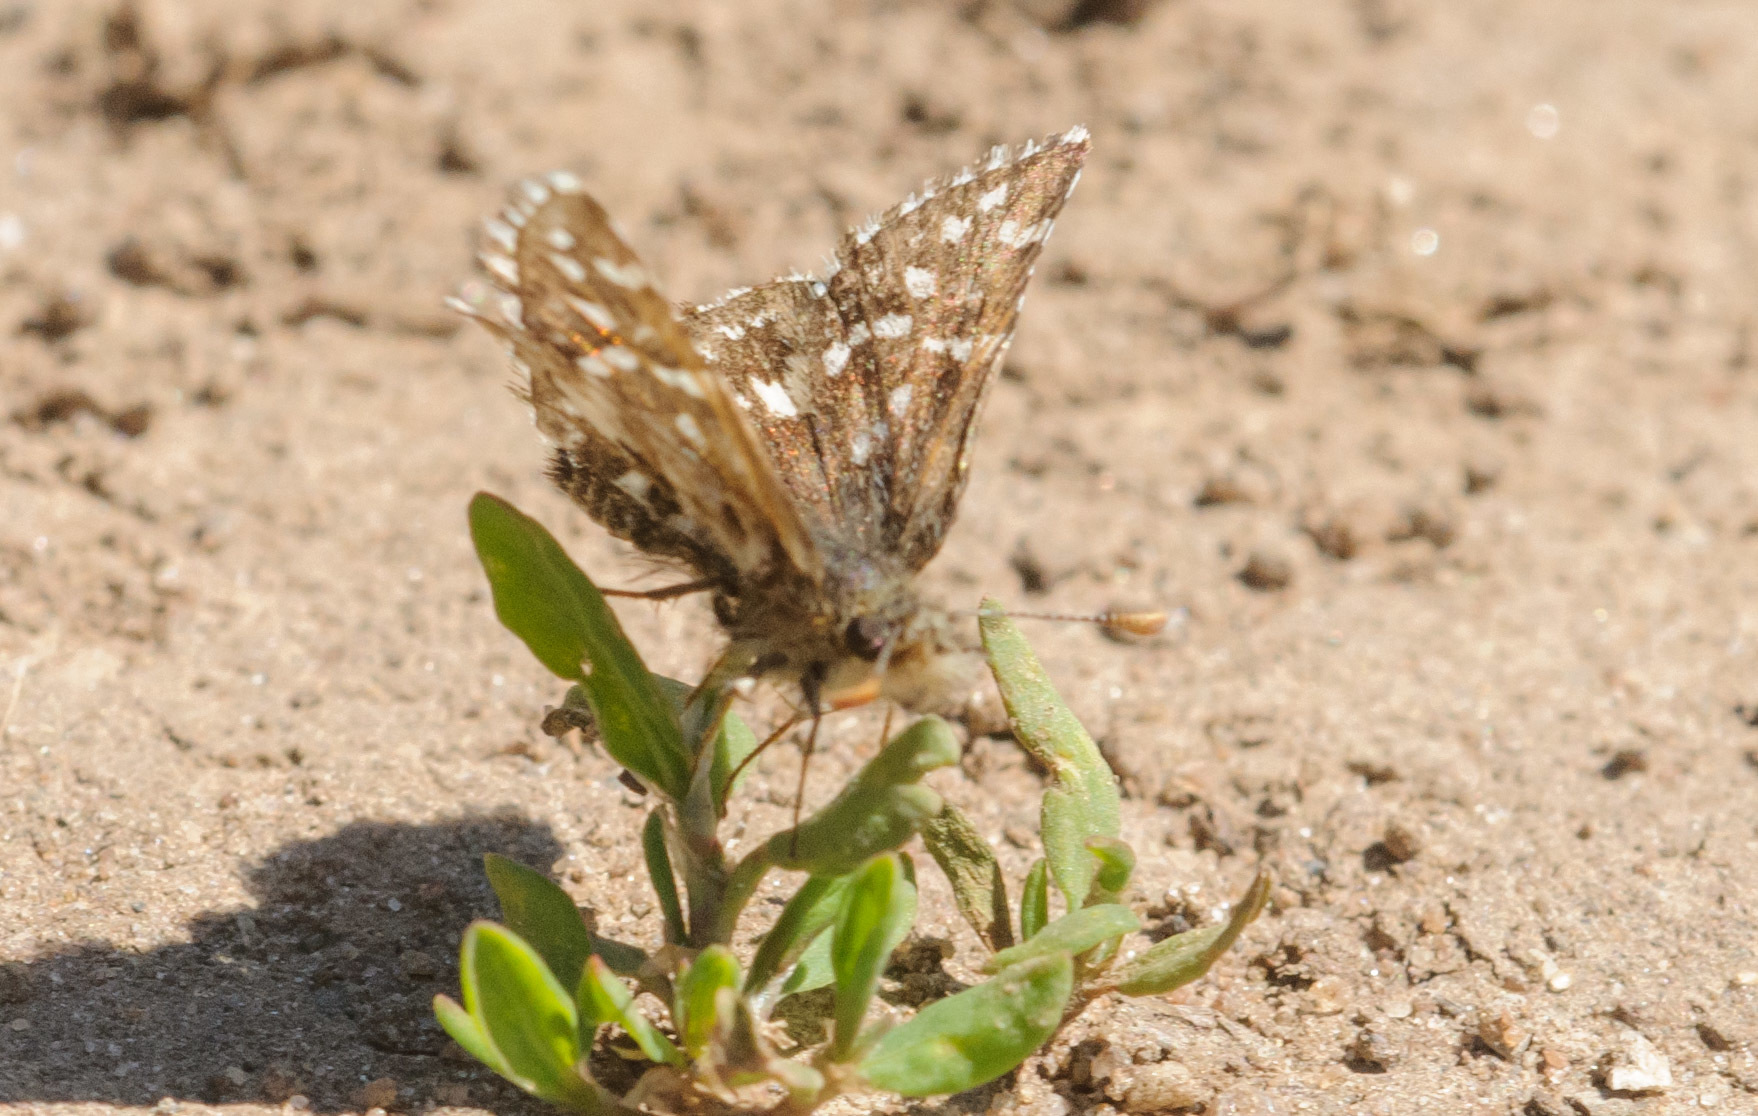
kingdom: Animalia
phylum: Arthropoda
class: Insecta
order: Lepidoptera
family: Hesperiidae
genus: Pyrgus
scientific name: Pyrgus ruralis
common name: Two-banded checkered-skipper
